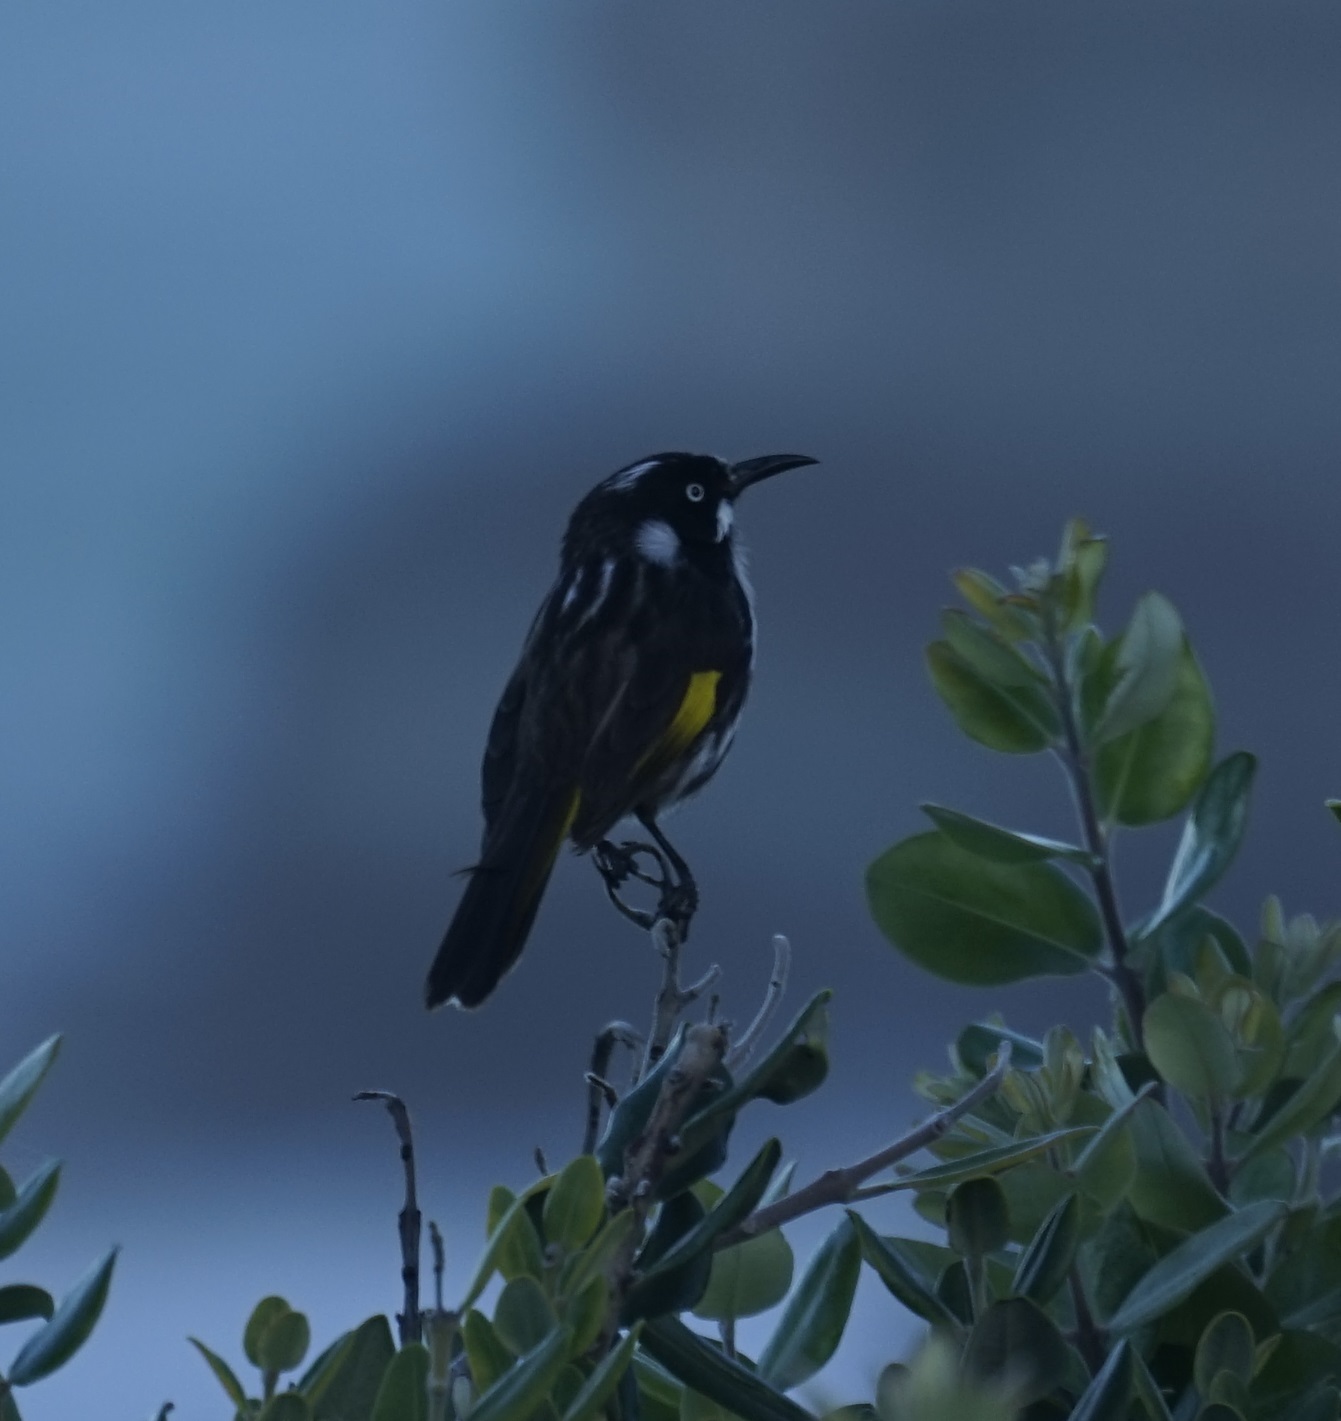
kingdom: Animalia
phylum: Chordata
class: Aves
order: Passeriformes
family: Meliphagidae
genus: Phylidonyris
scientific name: Phylidonyris novaehollandiae
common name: New holland honeyeater
